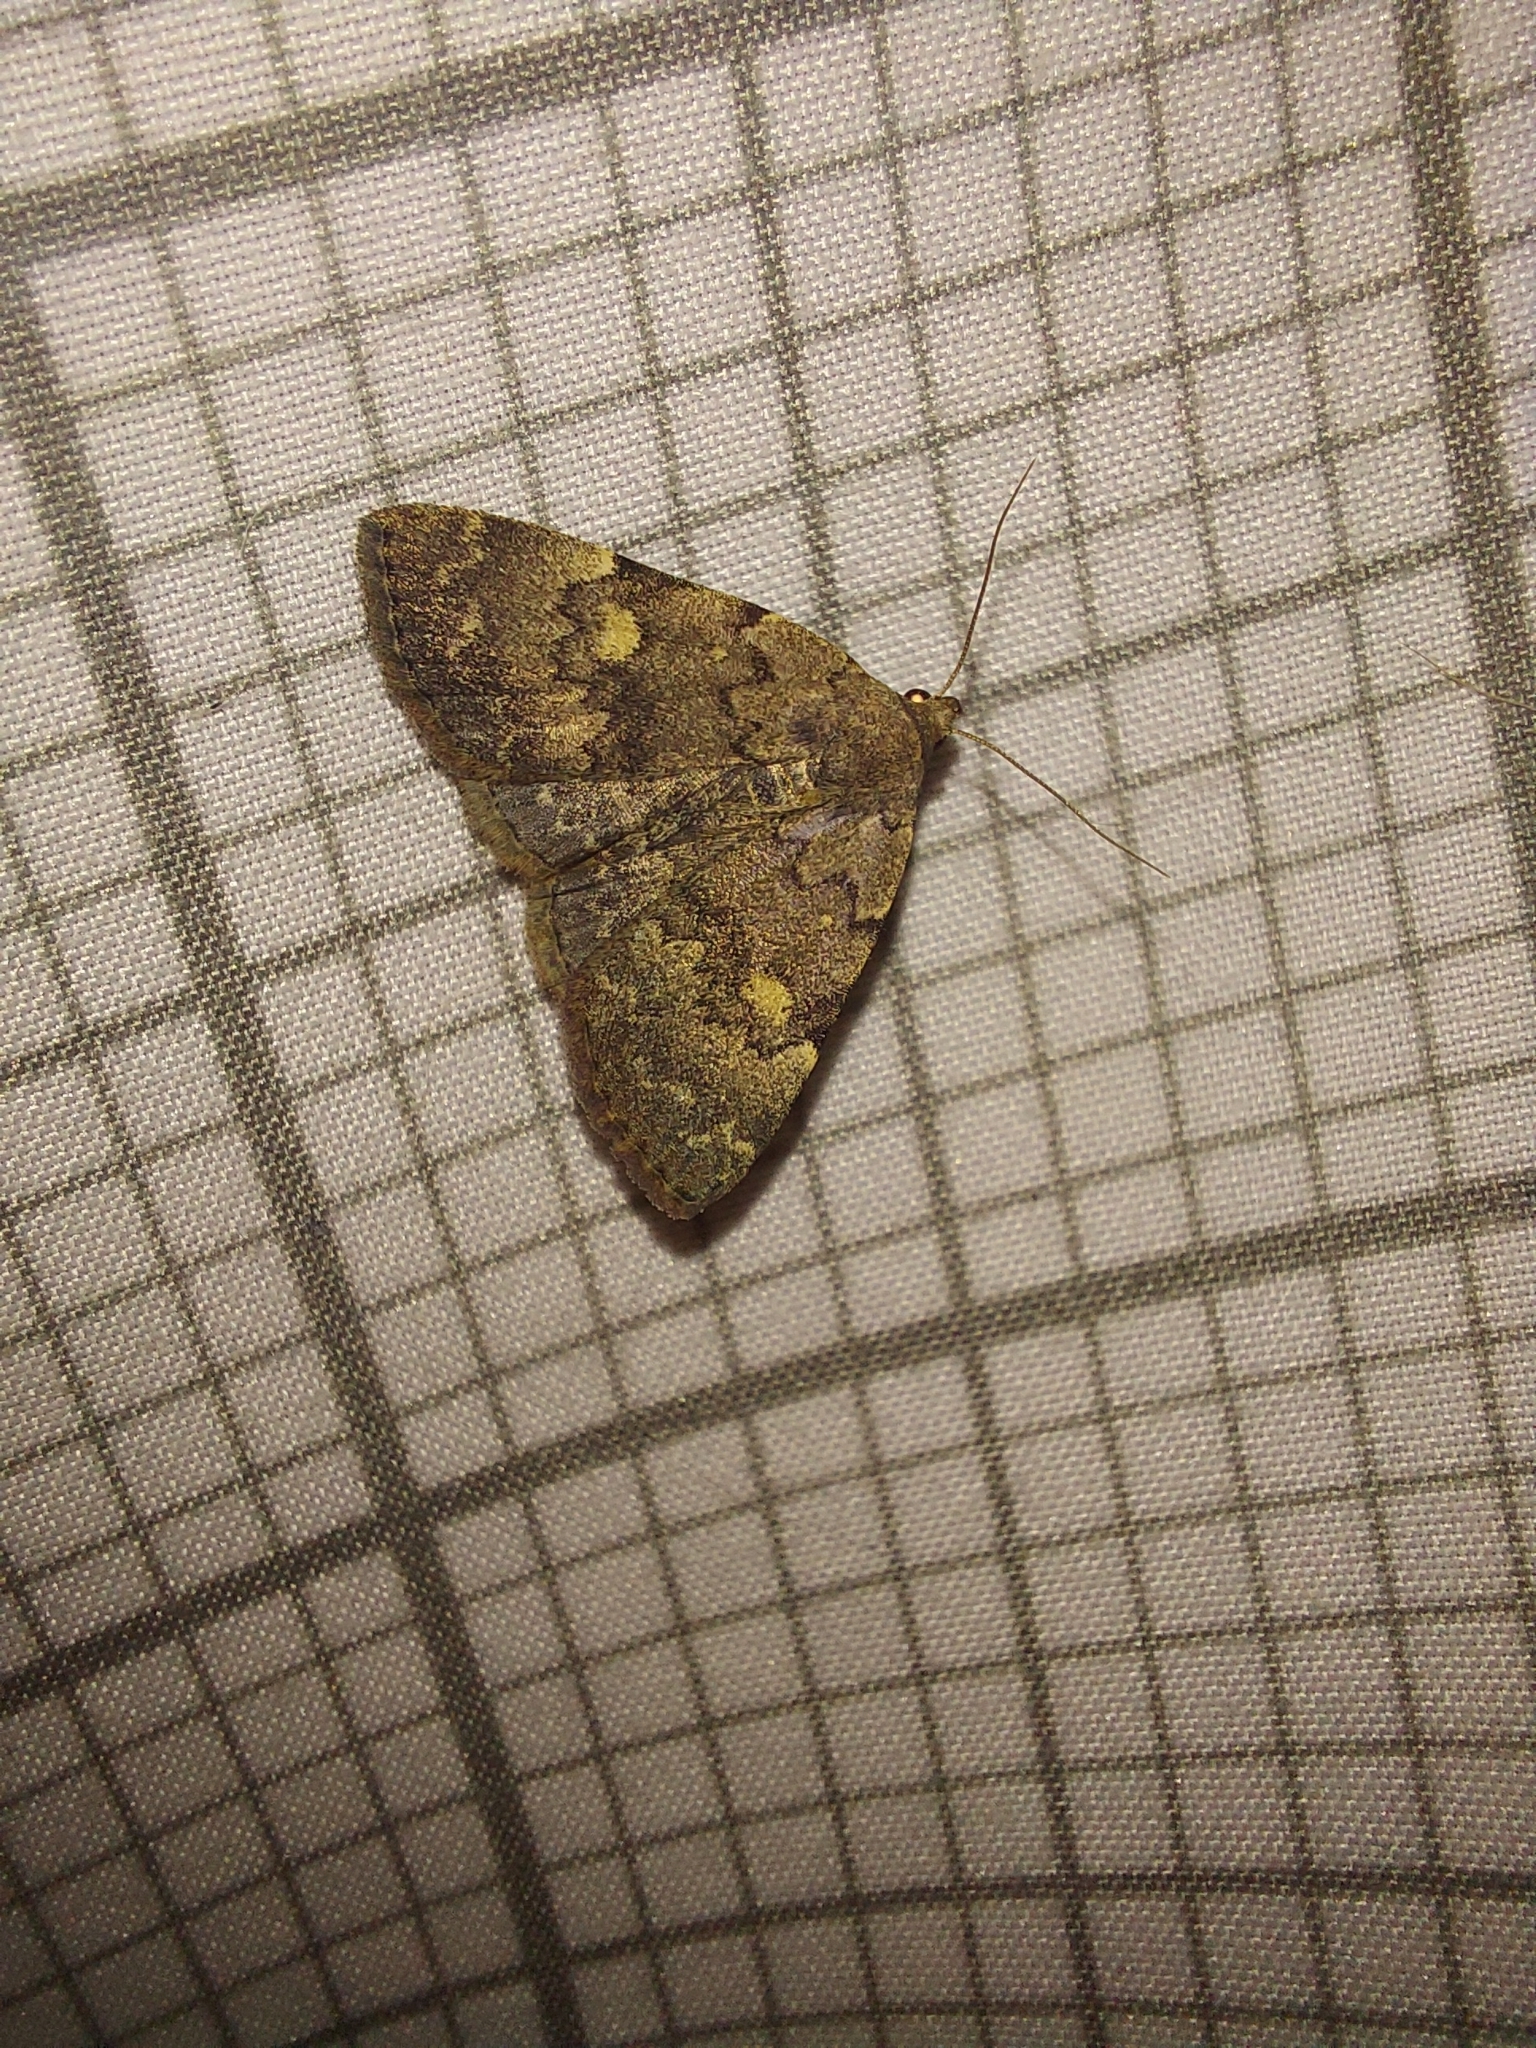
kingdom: Animalia
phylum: Arthropoda
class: Insecta
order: Lepidoptera
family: Erebidae
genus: Idia
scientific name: Idia aemula
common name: Common idia moth
